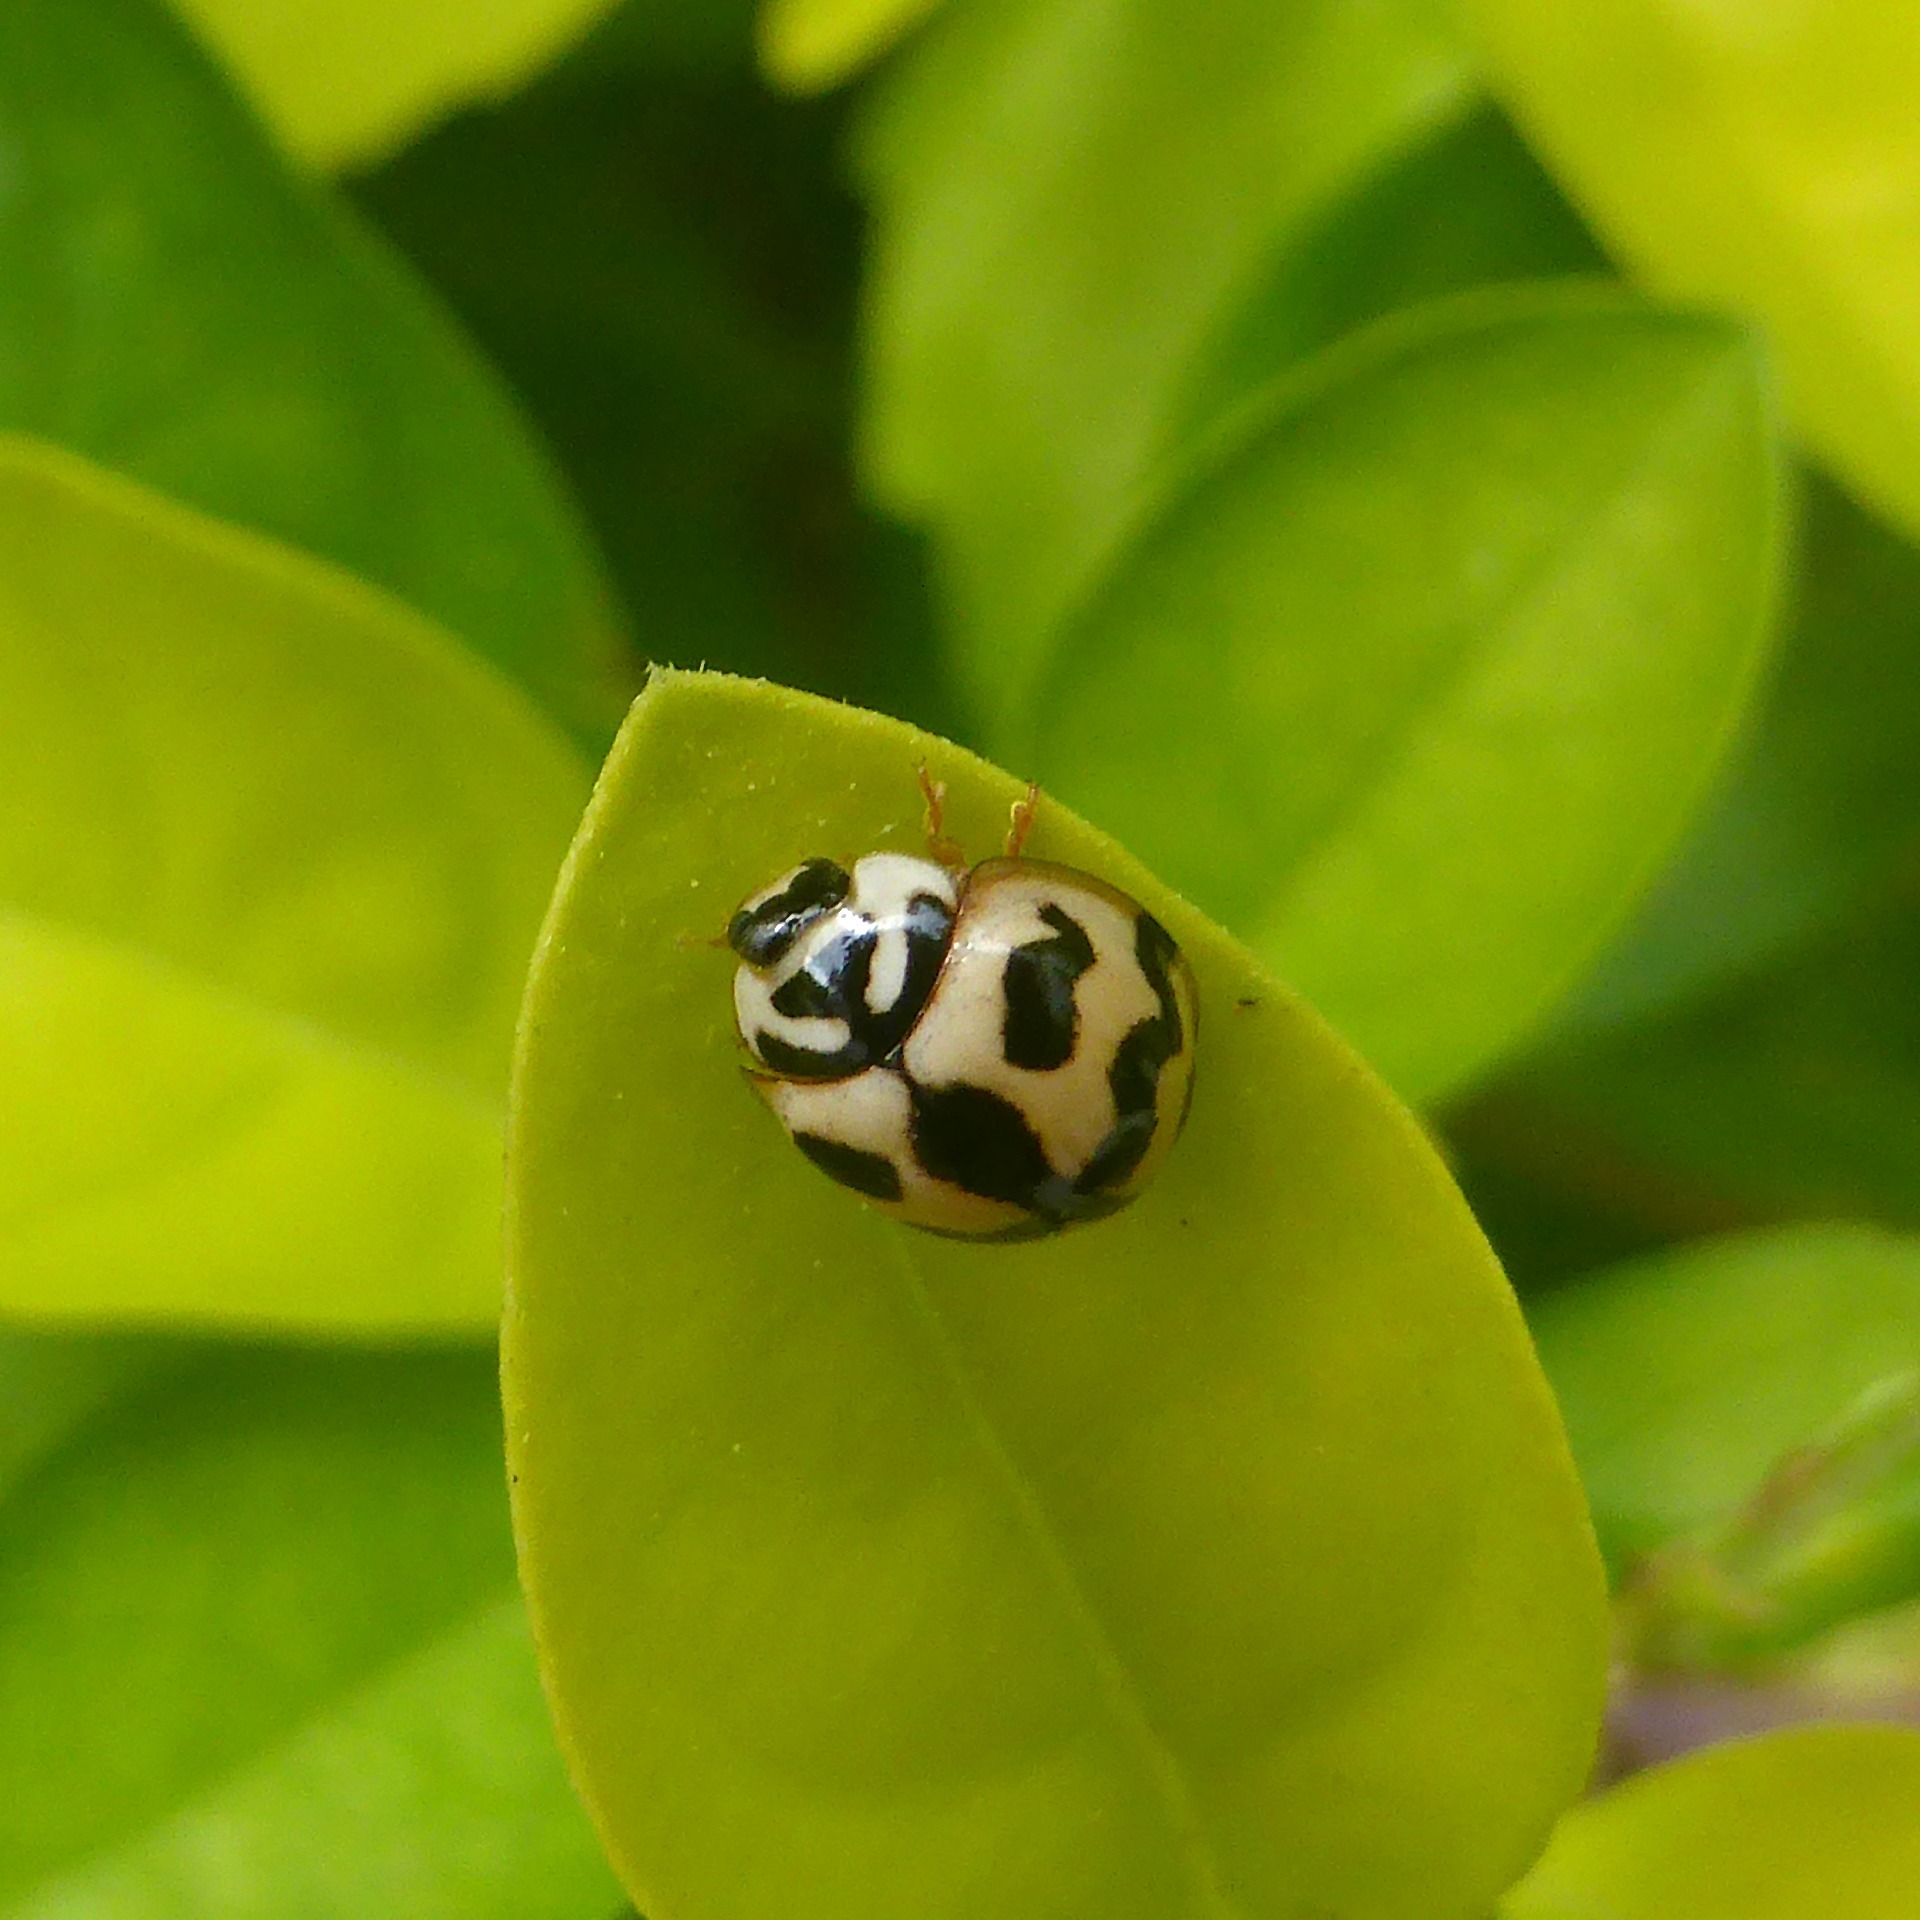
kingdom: Animalia
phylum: Arthropoda
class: Insecta
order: Coleoptera
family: Coccinellidae
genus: Cheilomenes
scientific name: Cheilomenes sexmaculata
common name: Ladybird beetle
